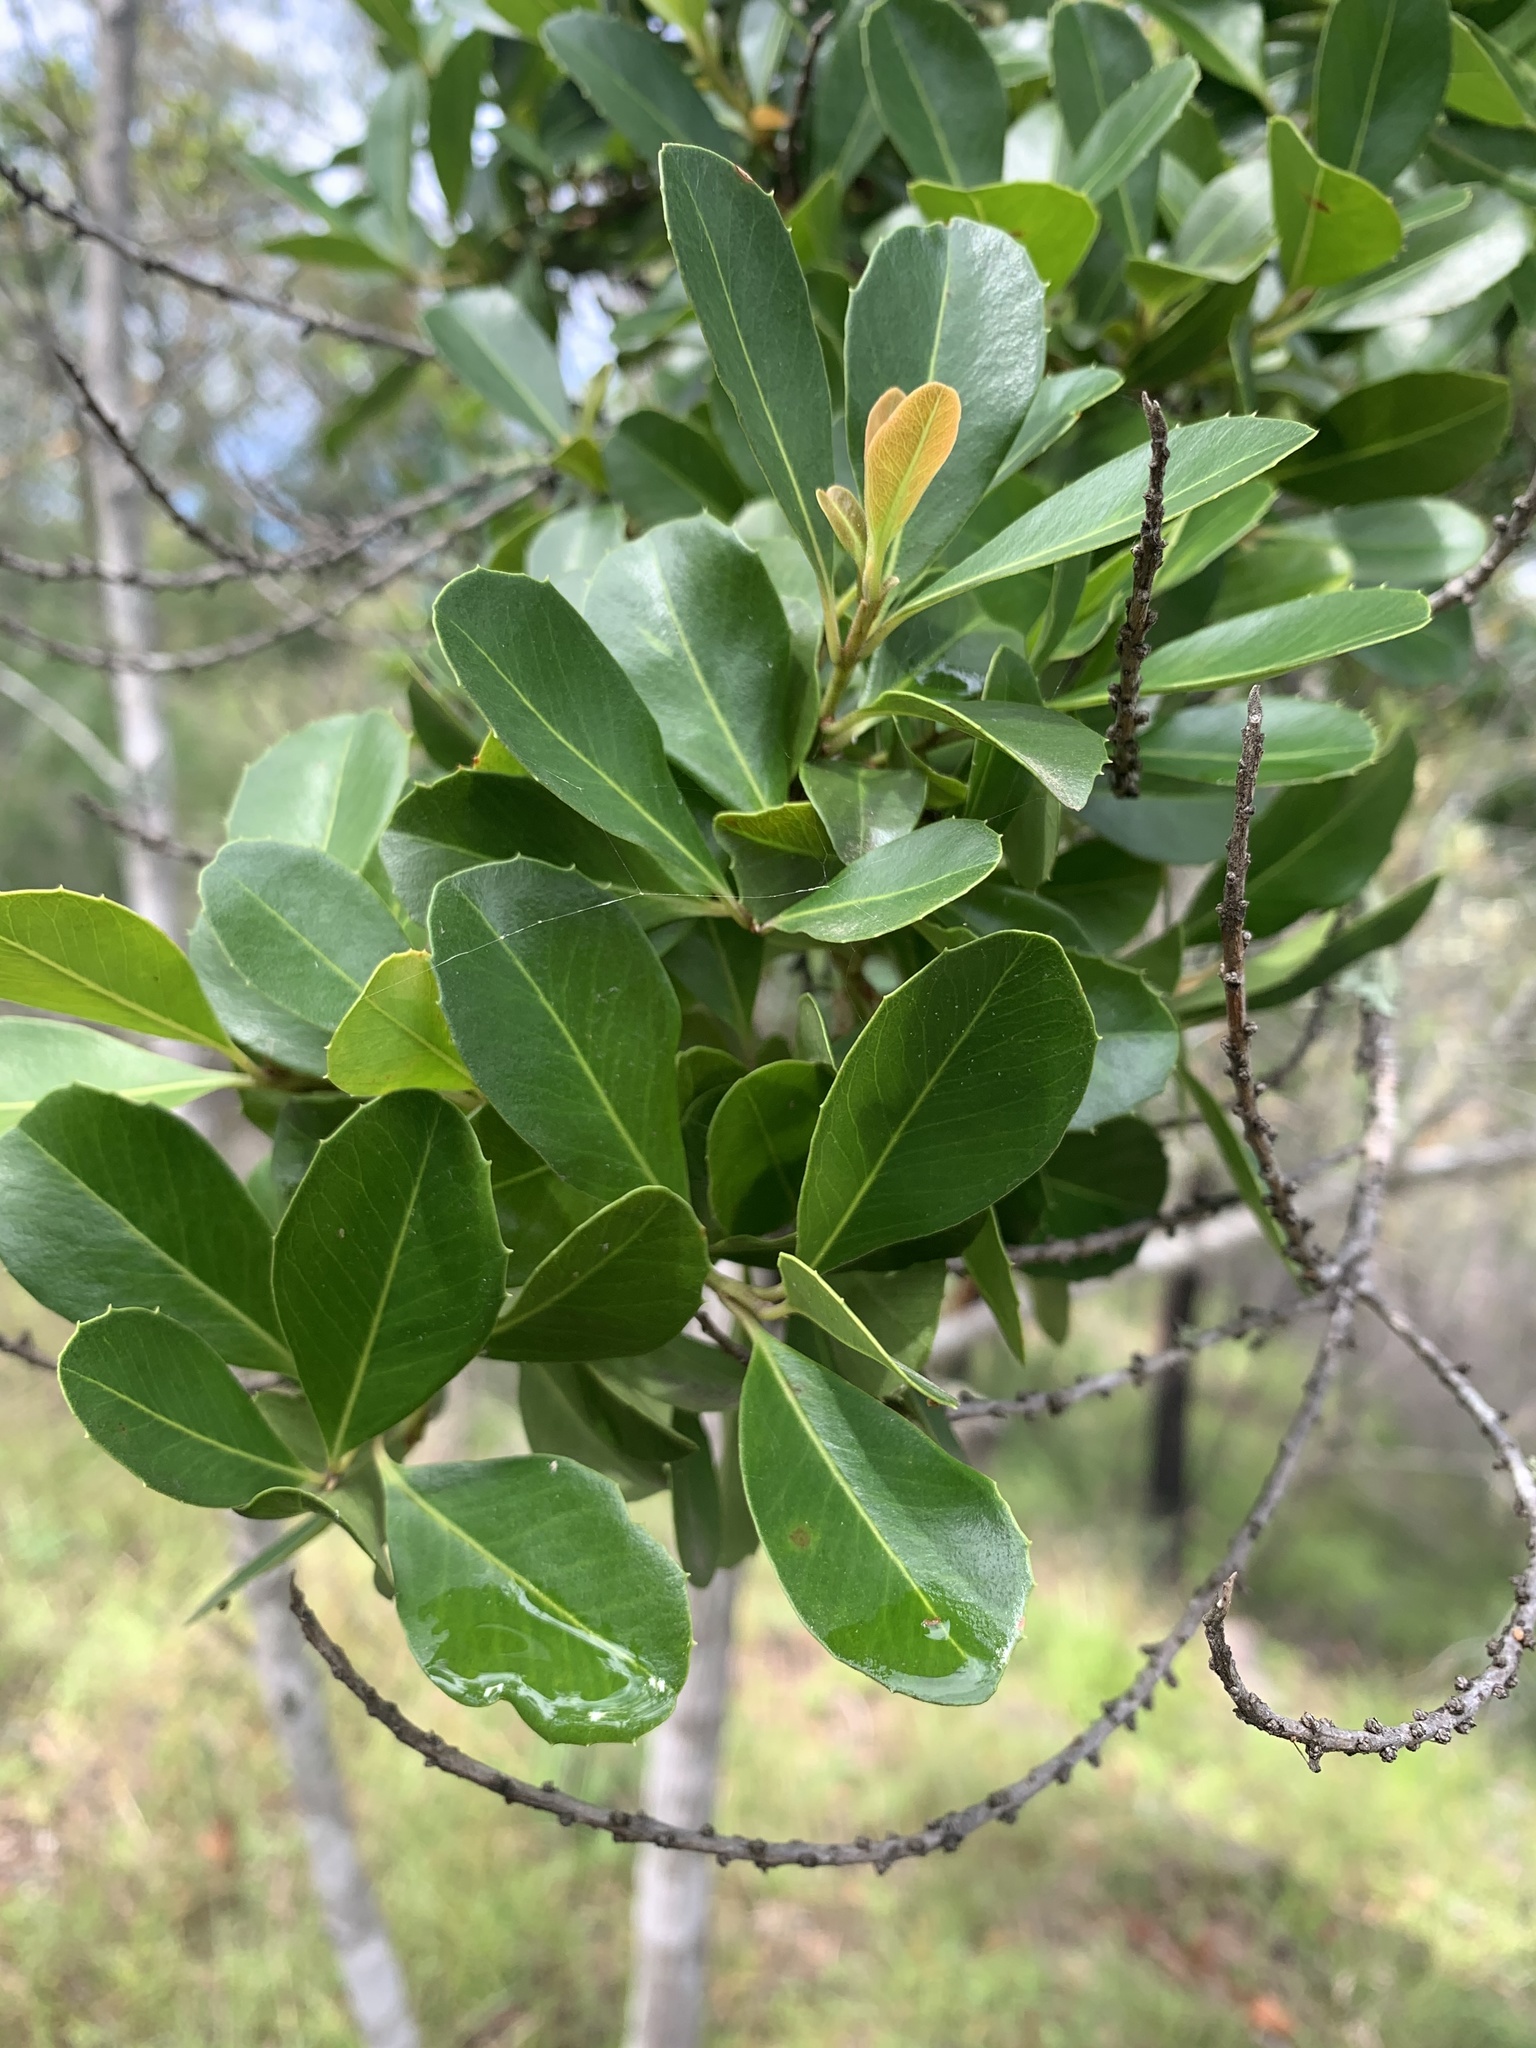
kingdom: Plantae
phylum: Tracheophyta
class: Magnoliopsida
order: Ericales
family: Primulaceae
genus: Myrsine
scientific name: Myrsine variabilis
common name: Brush muttonwood
